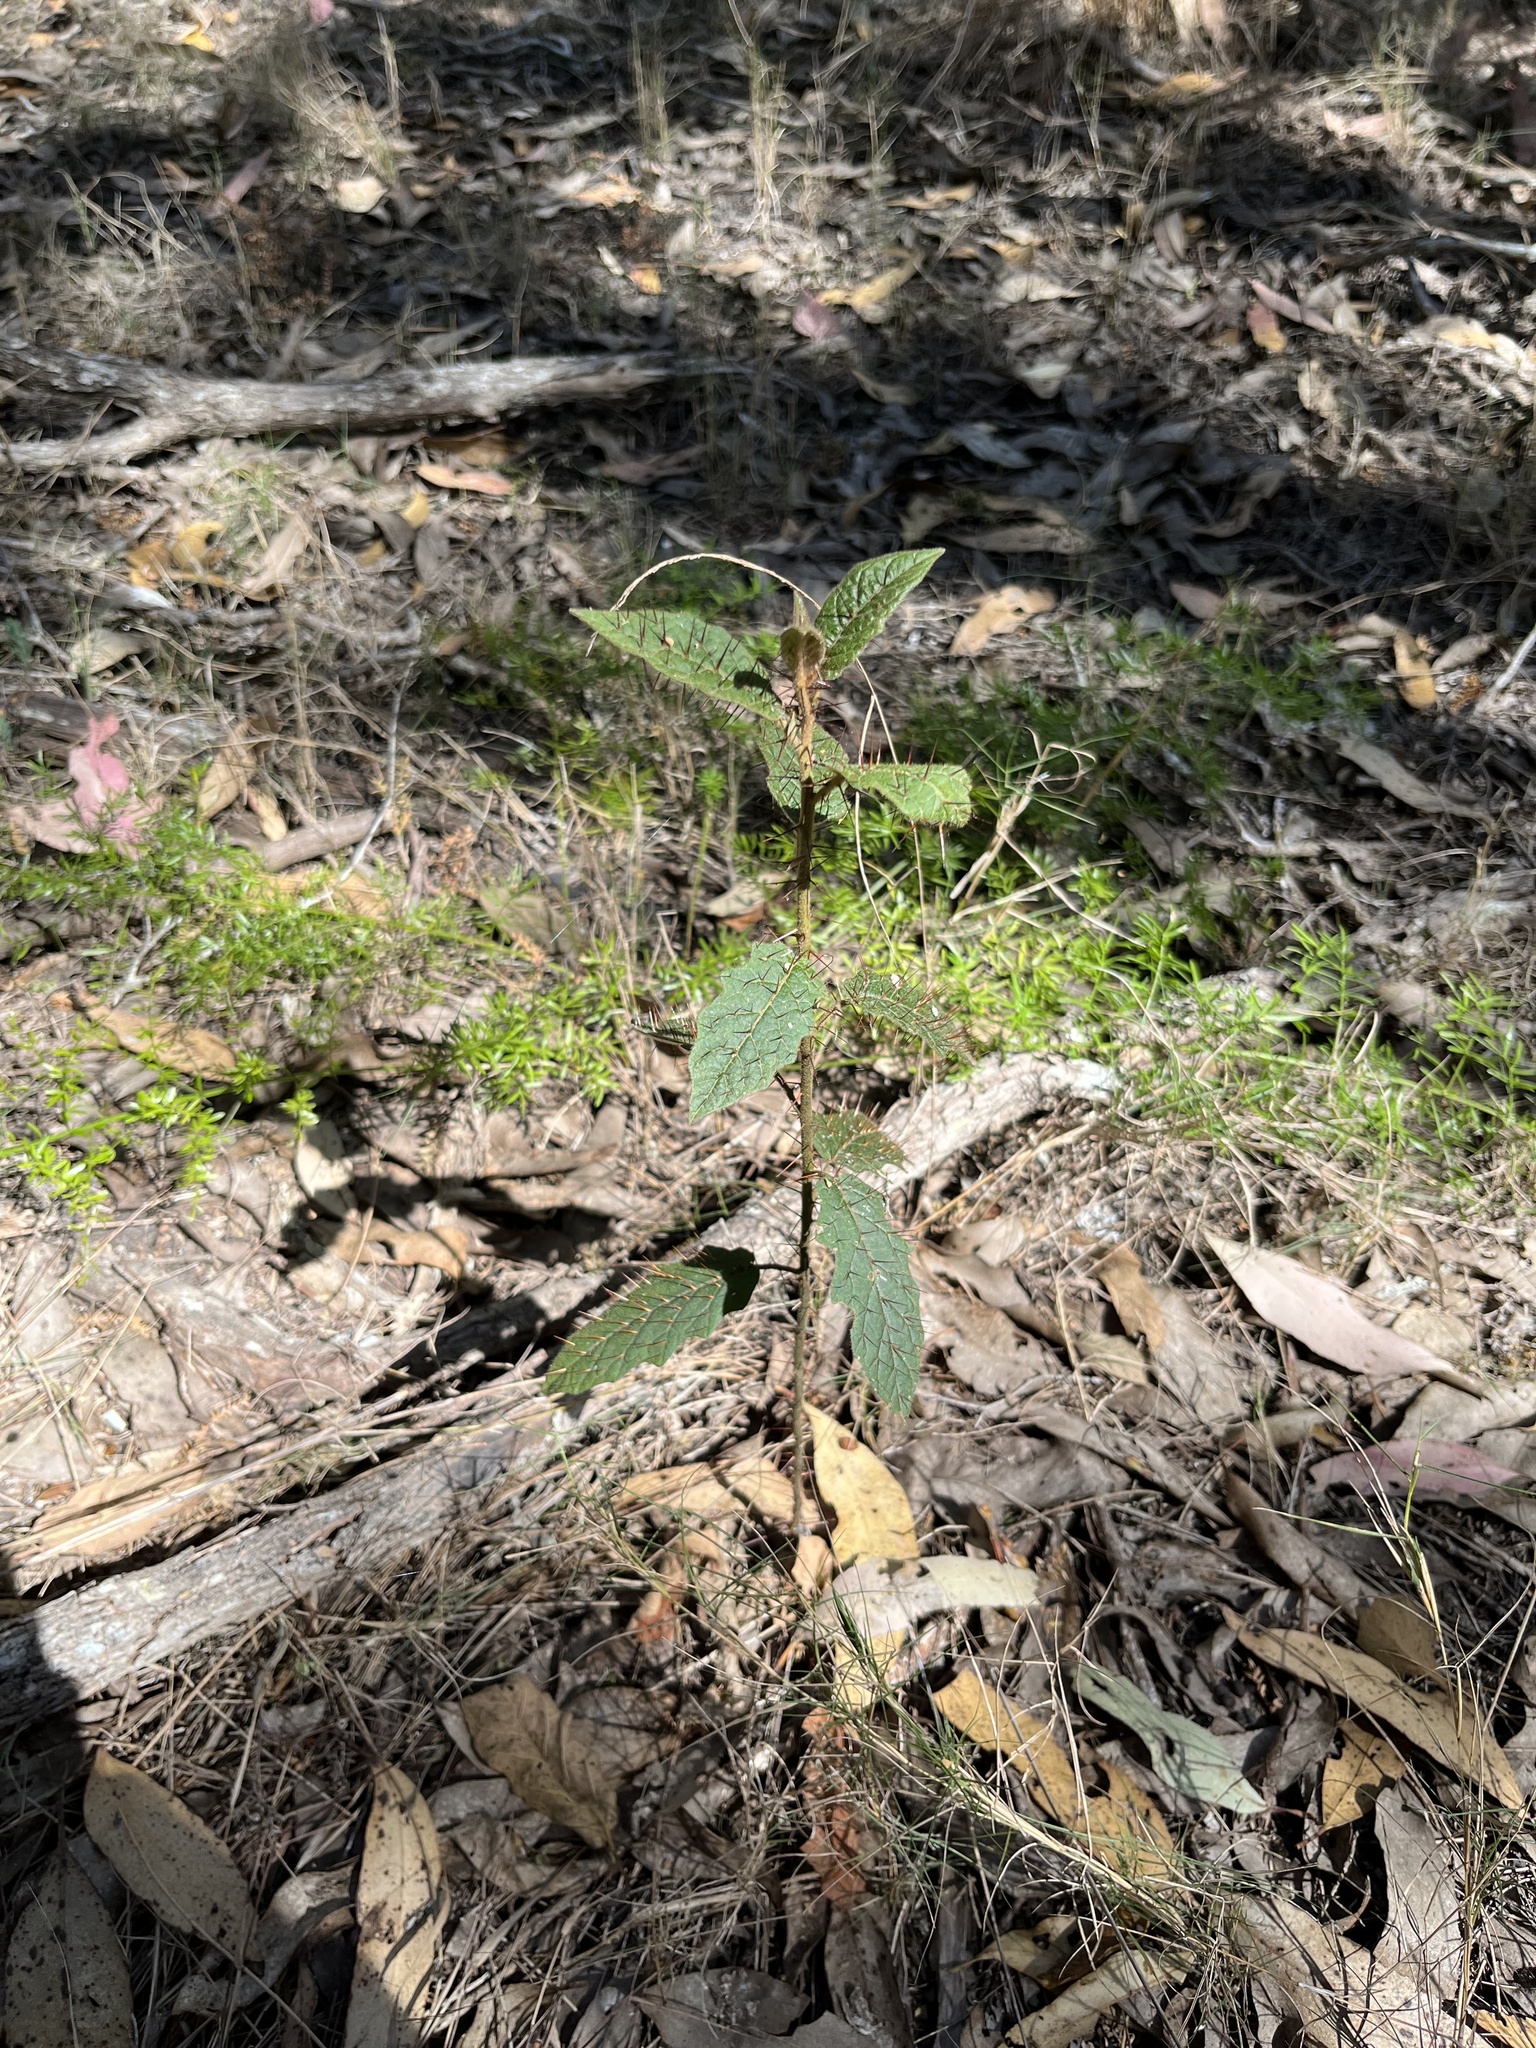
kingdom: Plantae
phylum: Tracheophyta
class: Magnoliopsida
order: Solanales
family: Solanaceae
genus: Solanum
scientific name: Solanum stelligerum
